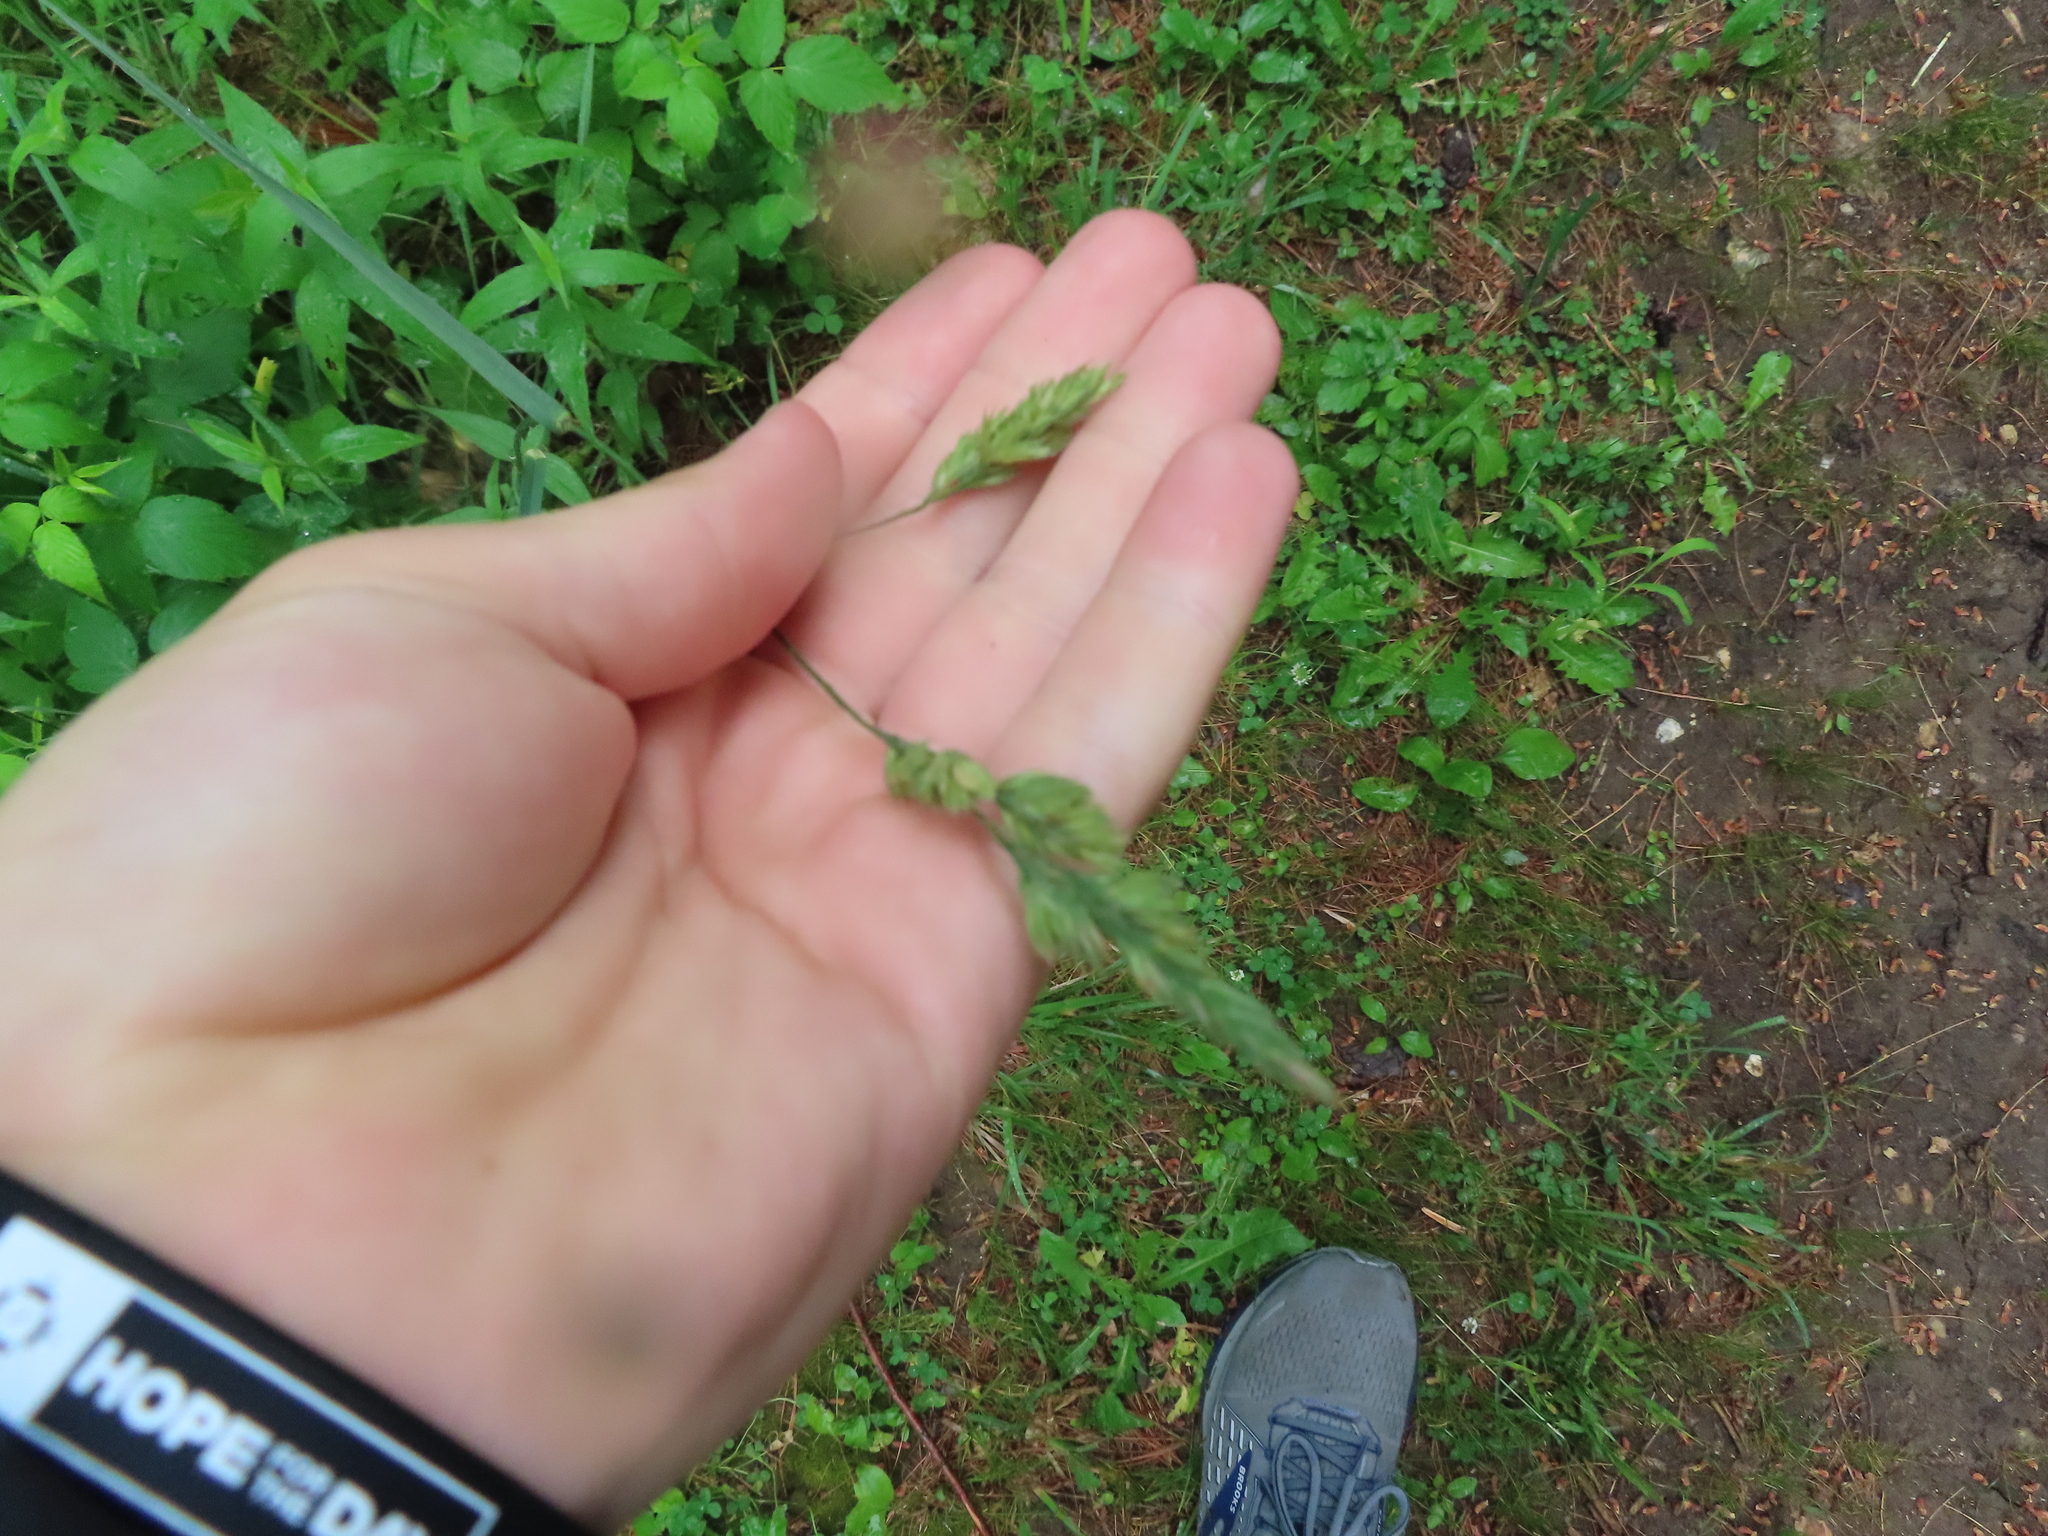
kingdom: Plantae
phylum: Tracheophyta
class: Liliopsida
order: Poales
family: Poaceae
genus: Dactylis
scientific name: Dactylis glomerata
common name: Orchardgrass
